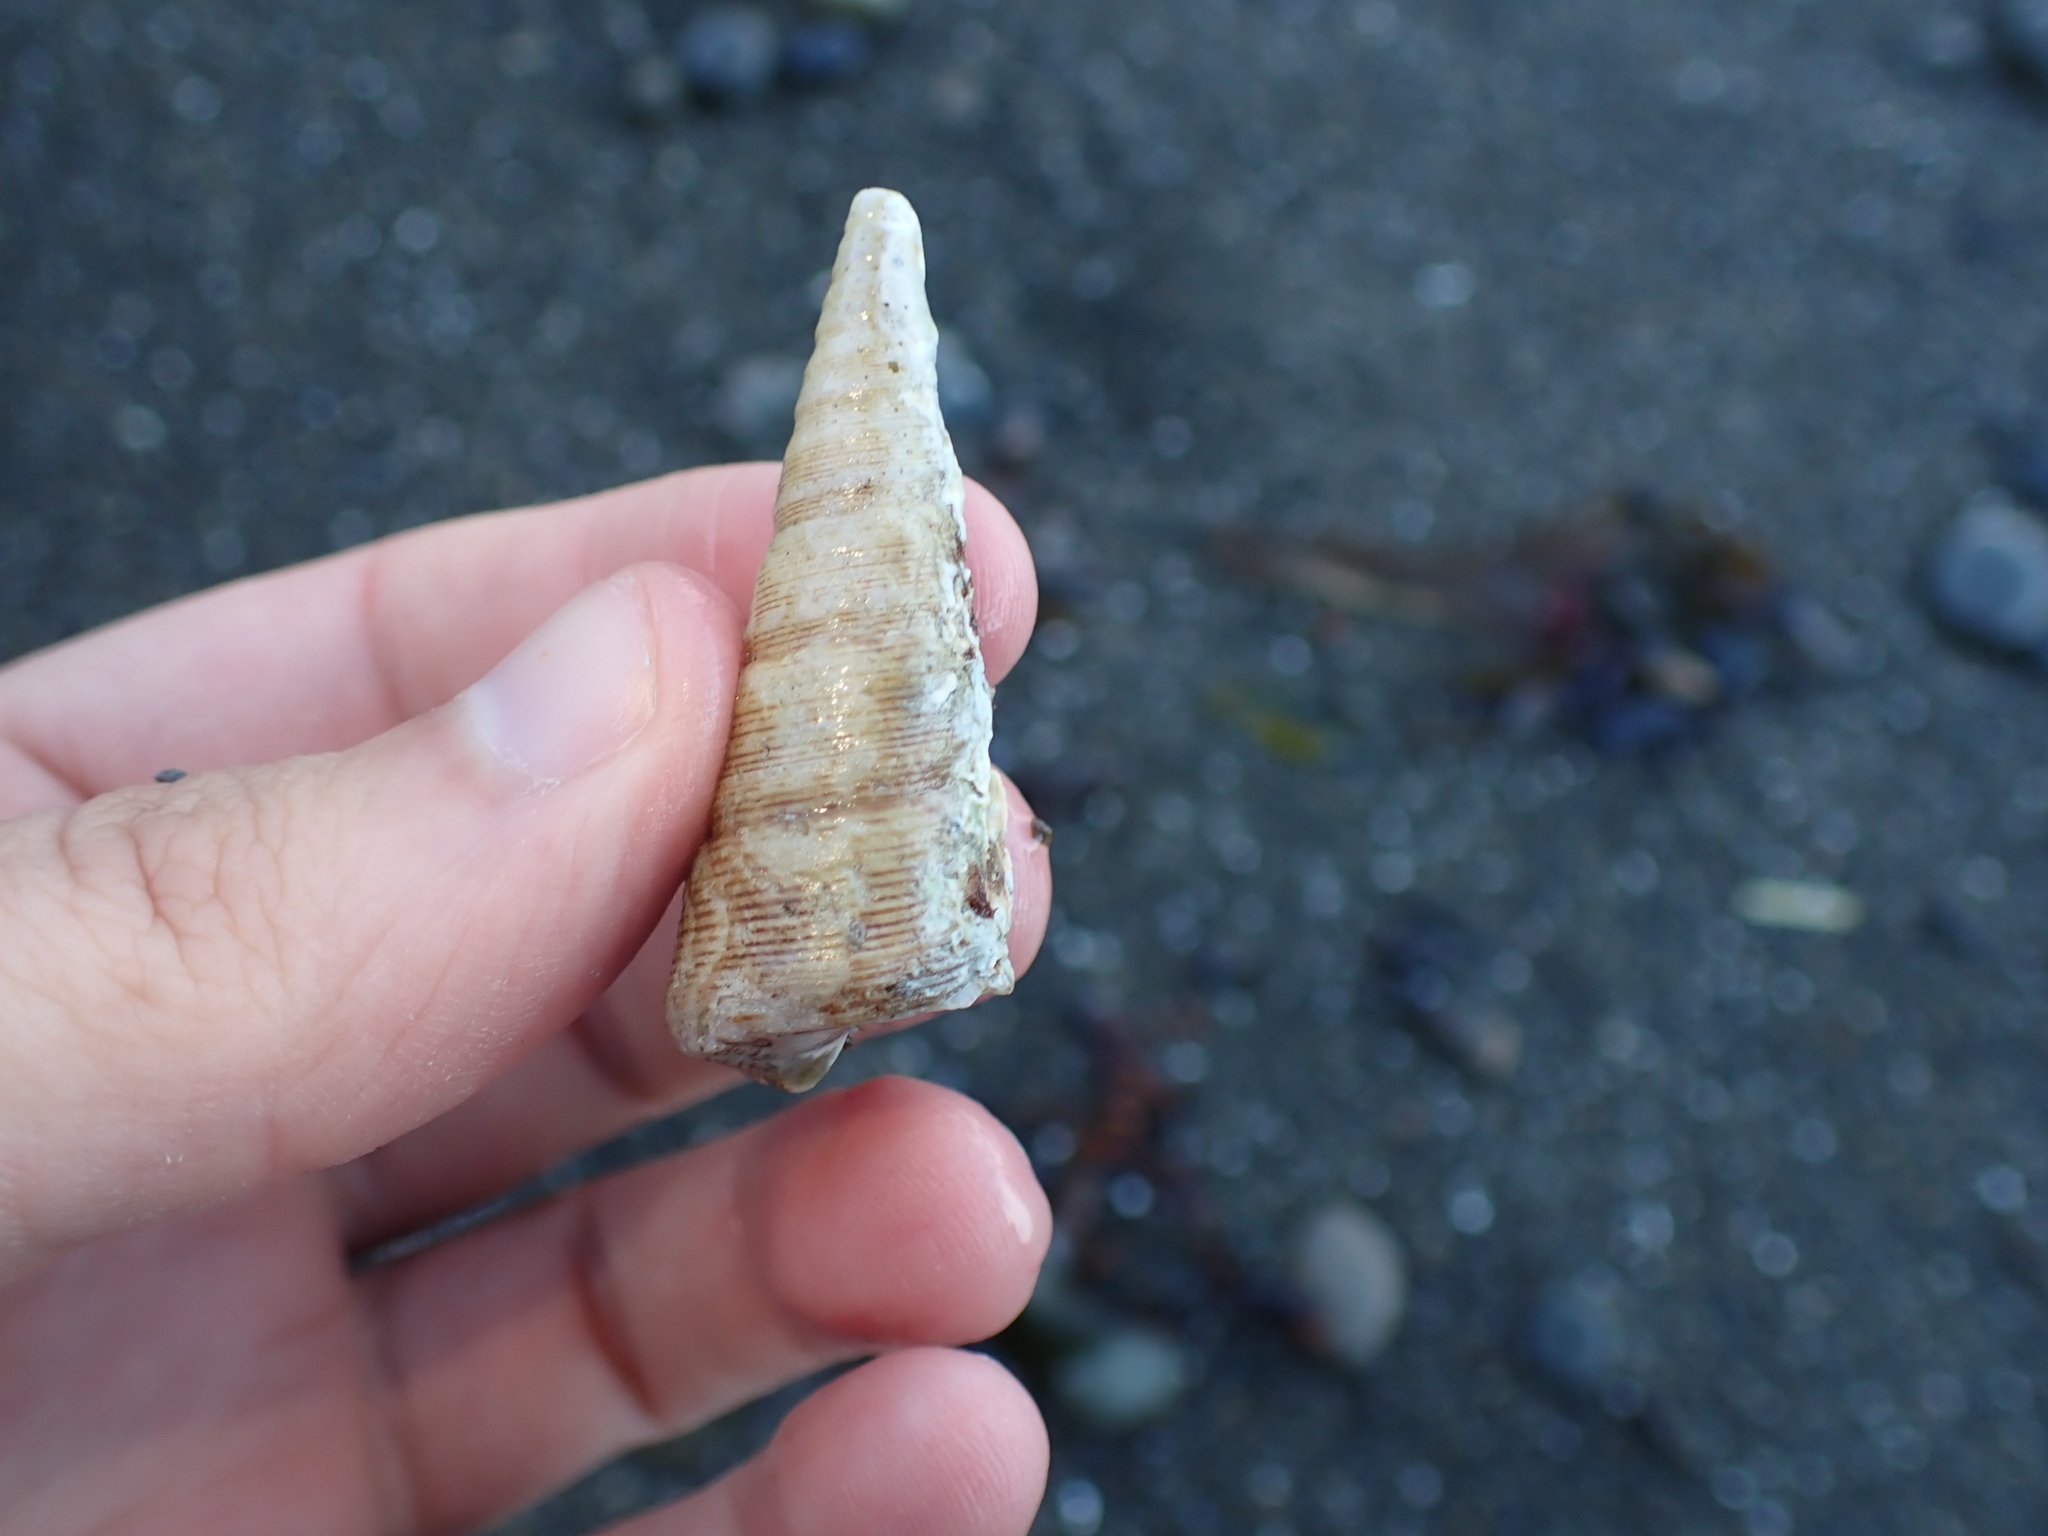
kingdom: Animalia
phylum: Mollusca
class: Gastropoda
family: Turritellidae
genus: Maoricolpus
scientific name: Maoricolpus roseus
